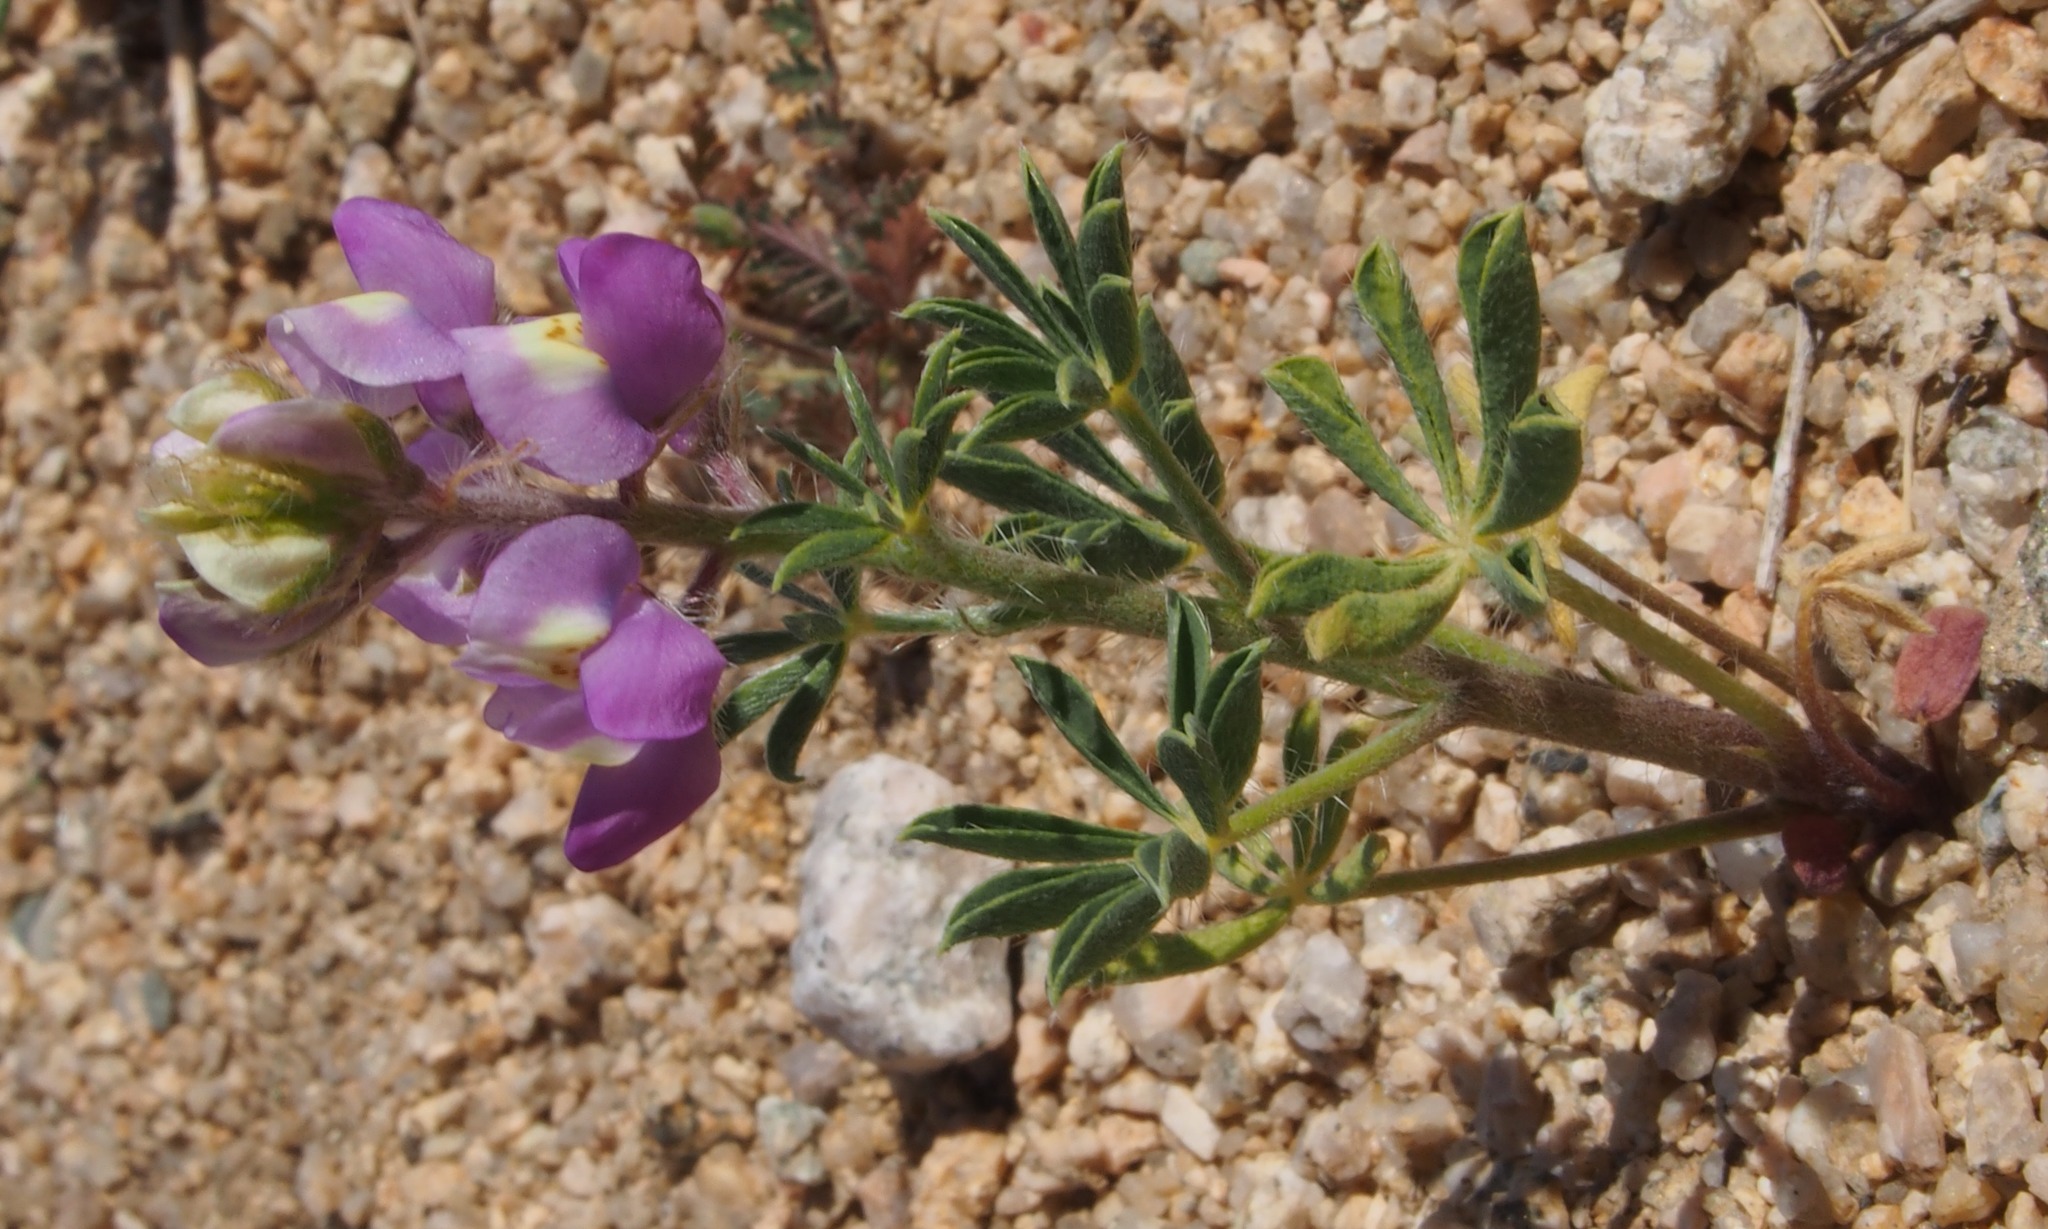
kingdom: Plantae
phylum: Tracheophyta
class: Magnoliopsida
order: Fabales
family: Fabaceae
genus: Lupinus
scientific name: Lupinus arizonicus
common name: Arizona lupine
